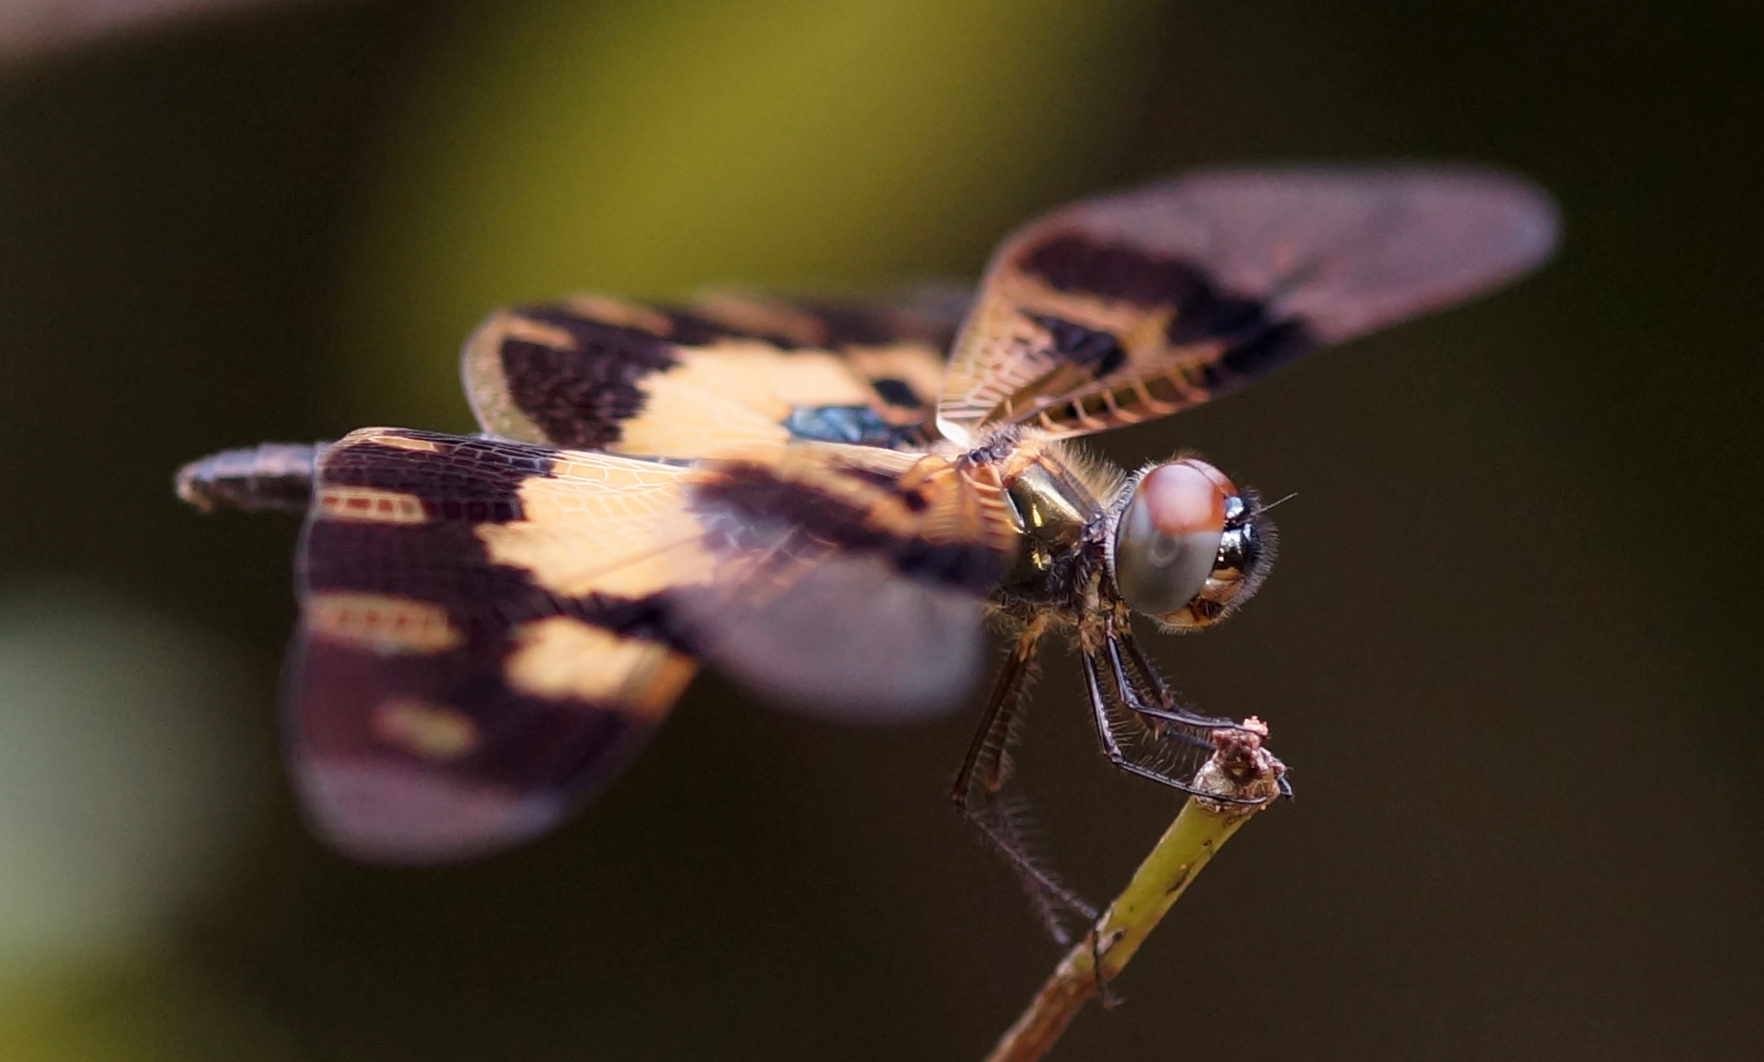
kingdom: Animalia
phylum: Arthropoda
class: Insecta
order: Odonata
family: Libellulidae
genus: Rhyothemis
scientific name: Rhyothemis variegata
